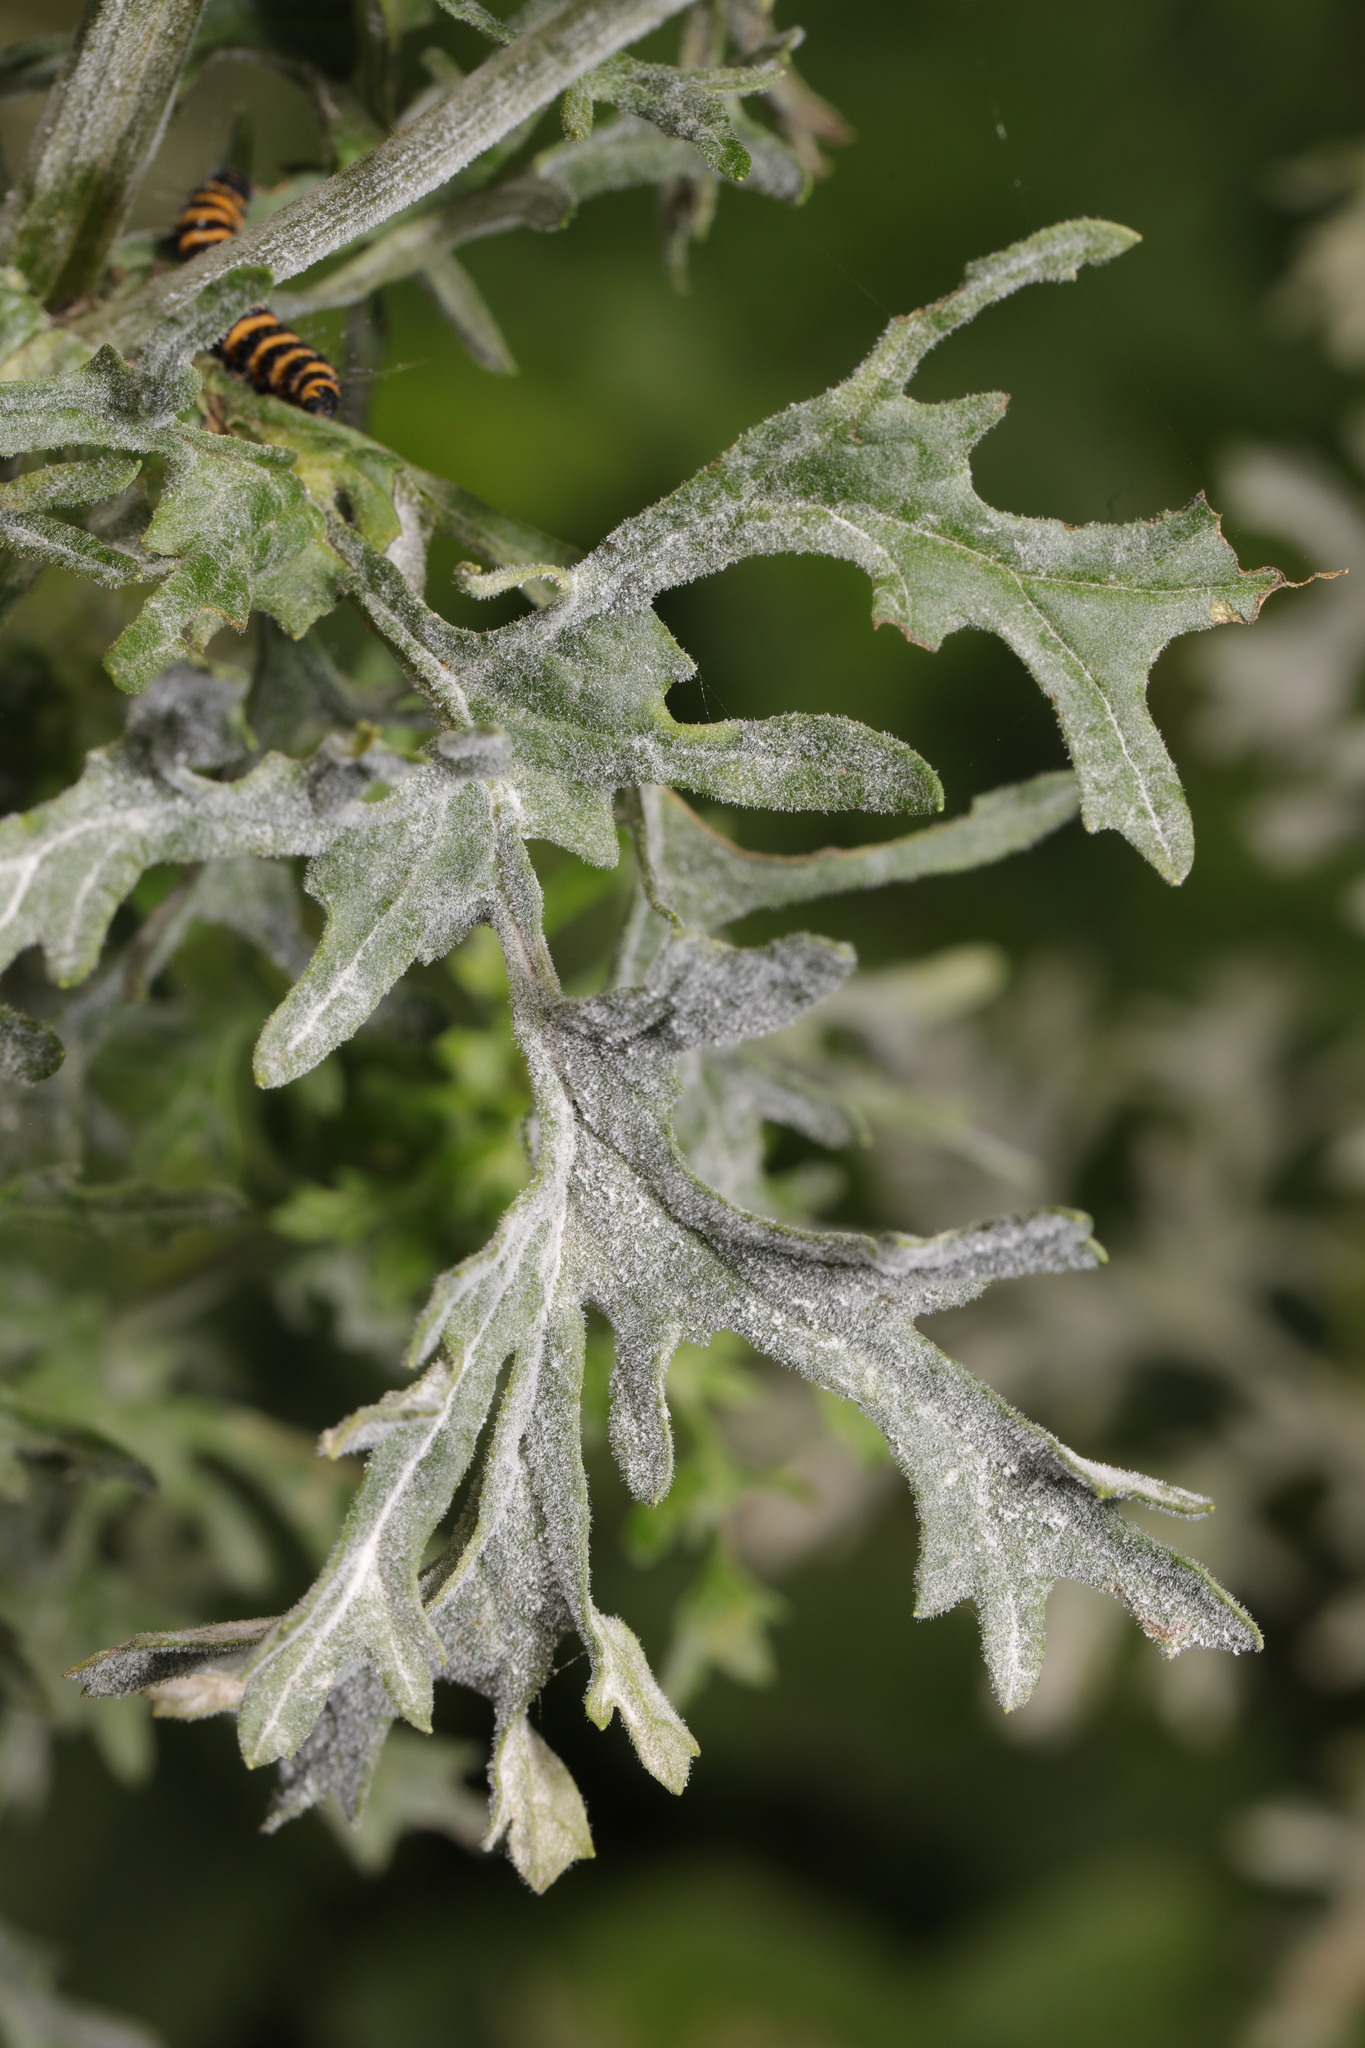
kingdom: Fungi
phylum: Ascomycota
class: Leotiomycetes
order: Helotiales
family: Erysiphaceae
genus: Golovinomyces
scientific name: Golovinomyces senecionis
